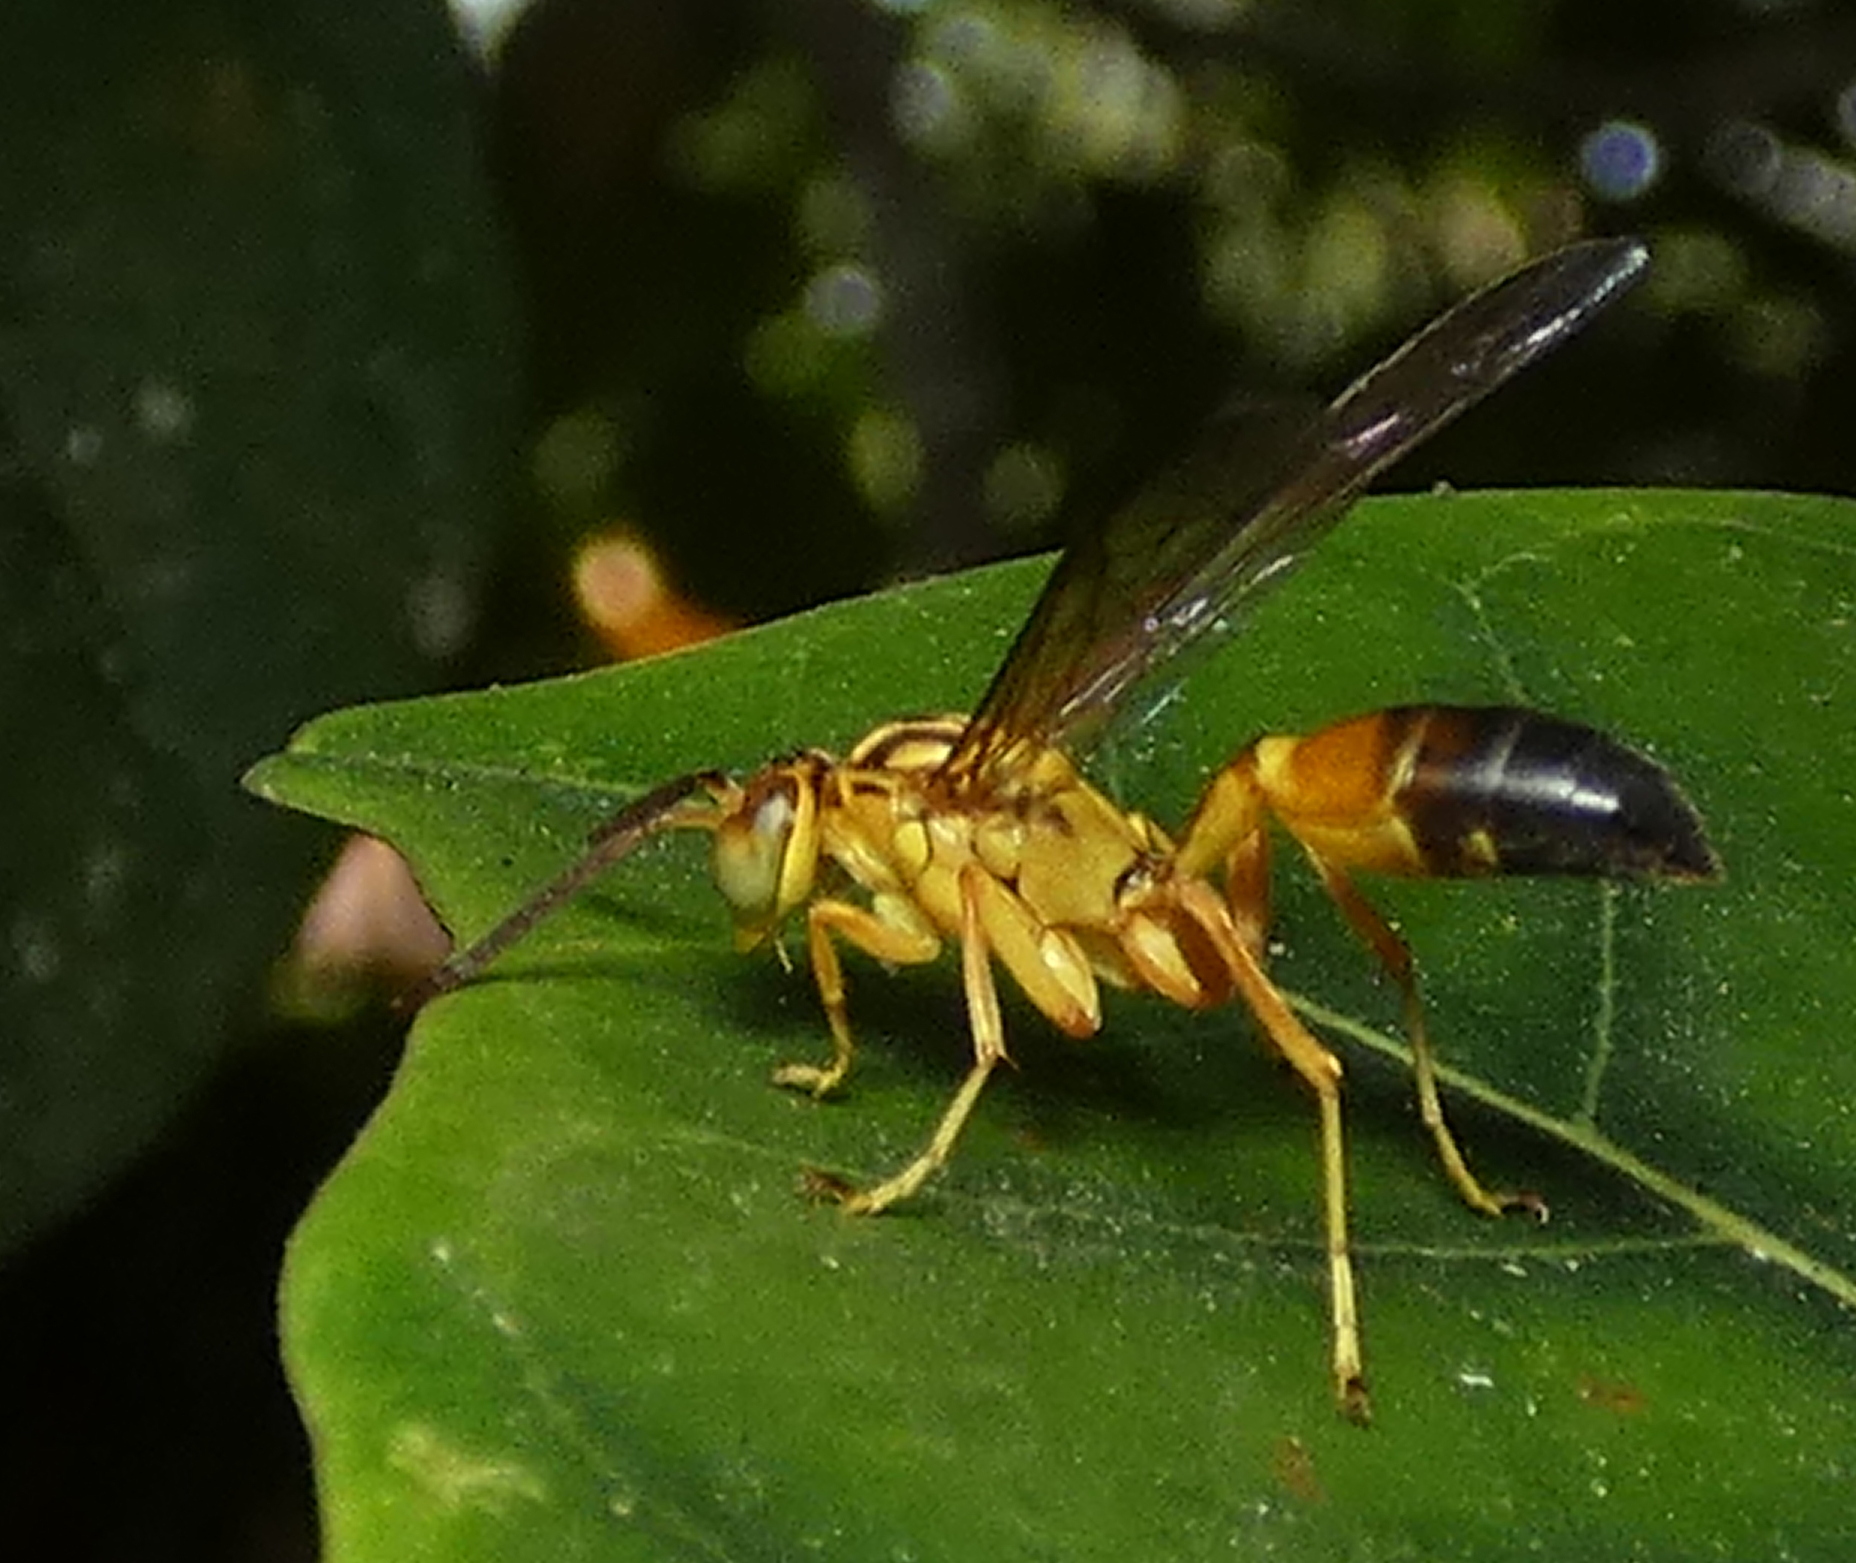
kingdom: Animalia
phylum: Arthropoda
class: Insecta
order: Hymenoptera
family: Vespidae
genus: Agelaia
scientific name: Agelaia pallipes
